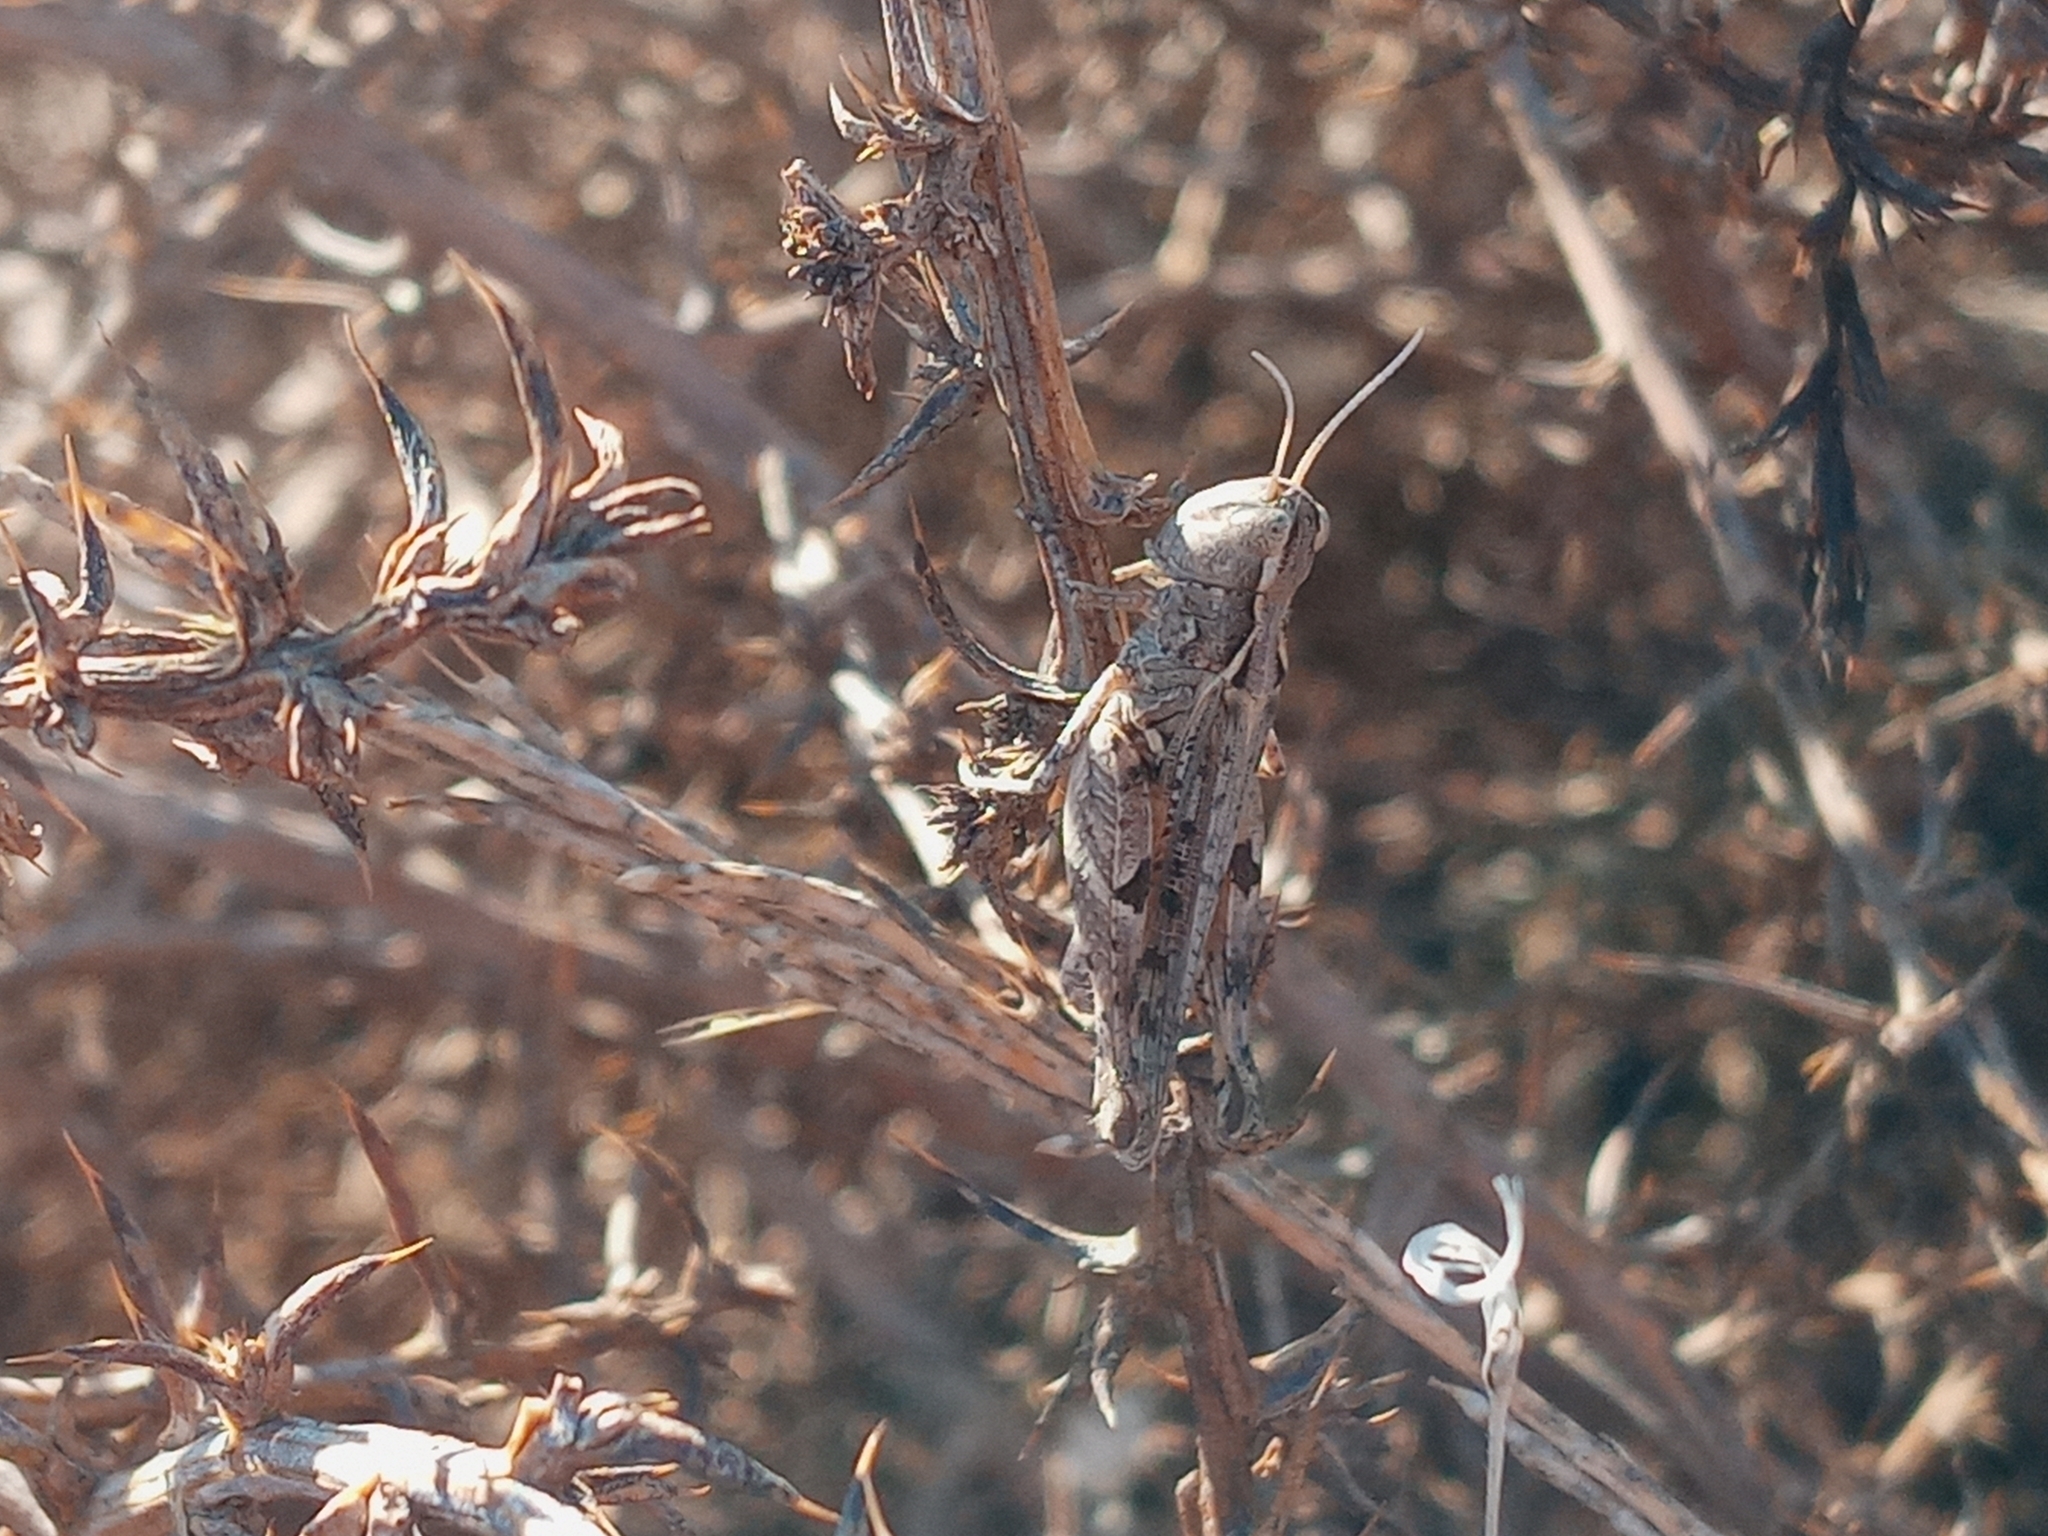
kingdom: Animalia
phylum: Arthropoda
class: Insecta
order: Orthoptera
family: Acrididae
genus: Eupnigodes
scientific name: Eupnigodes sierranus
